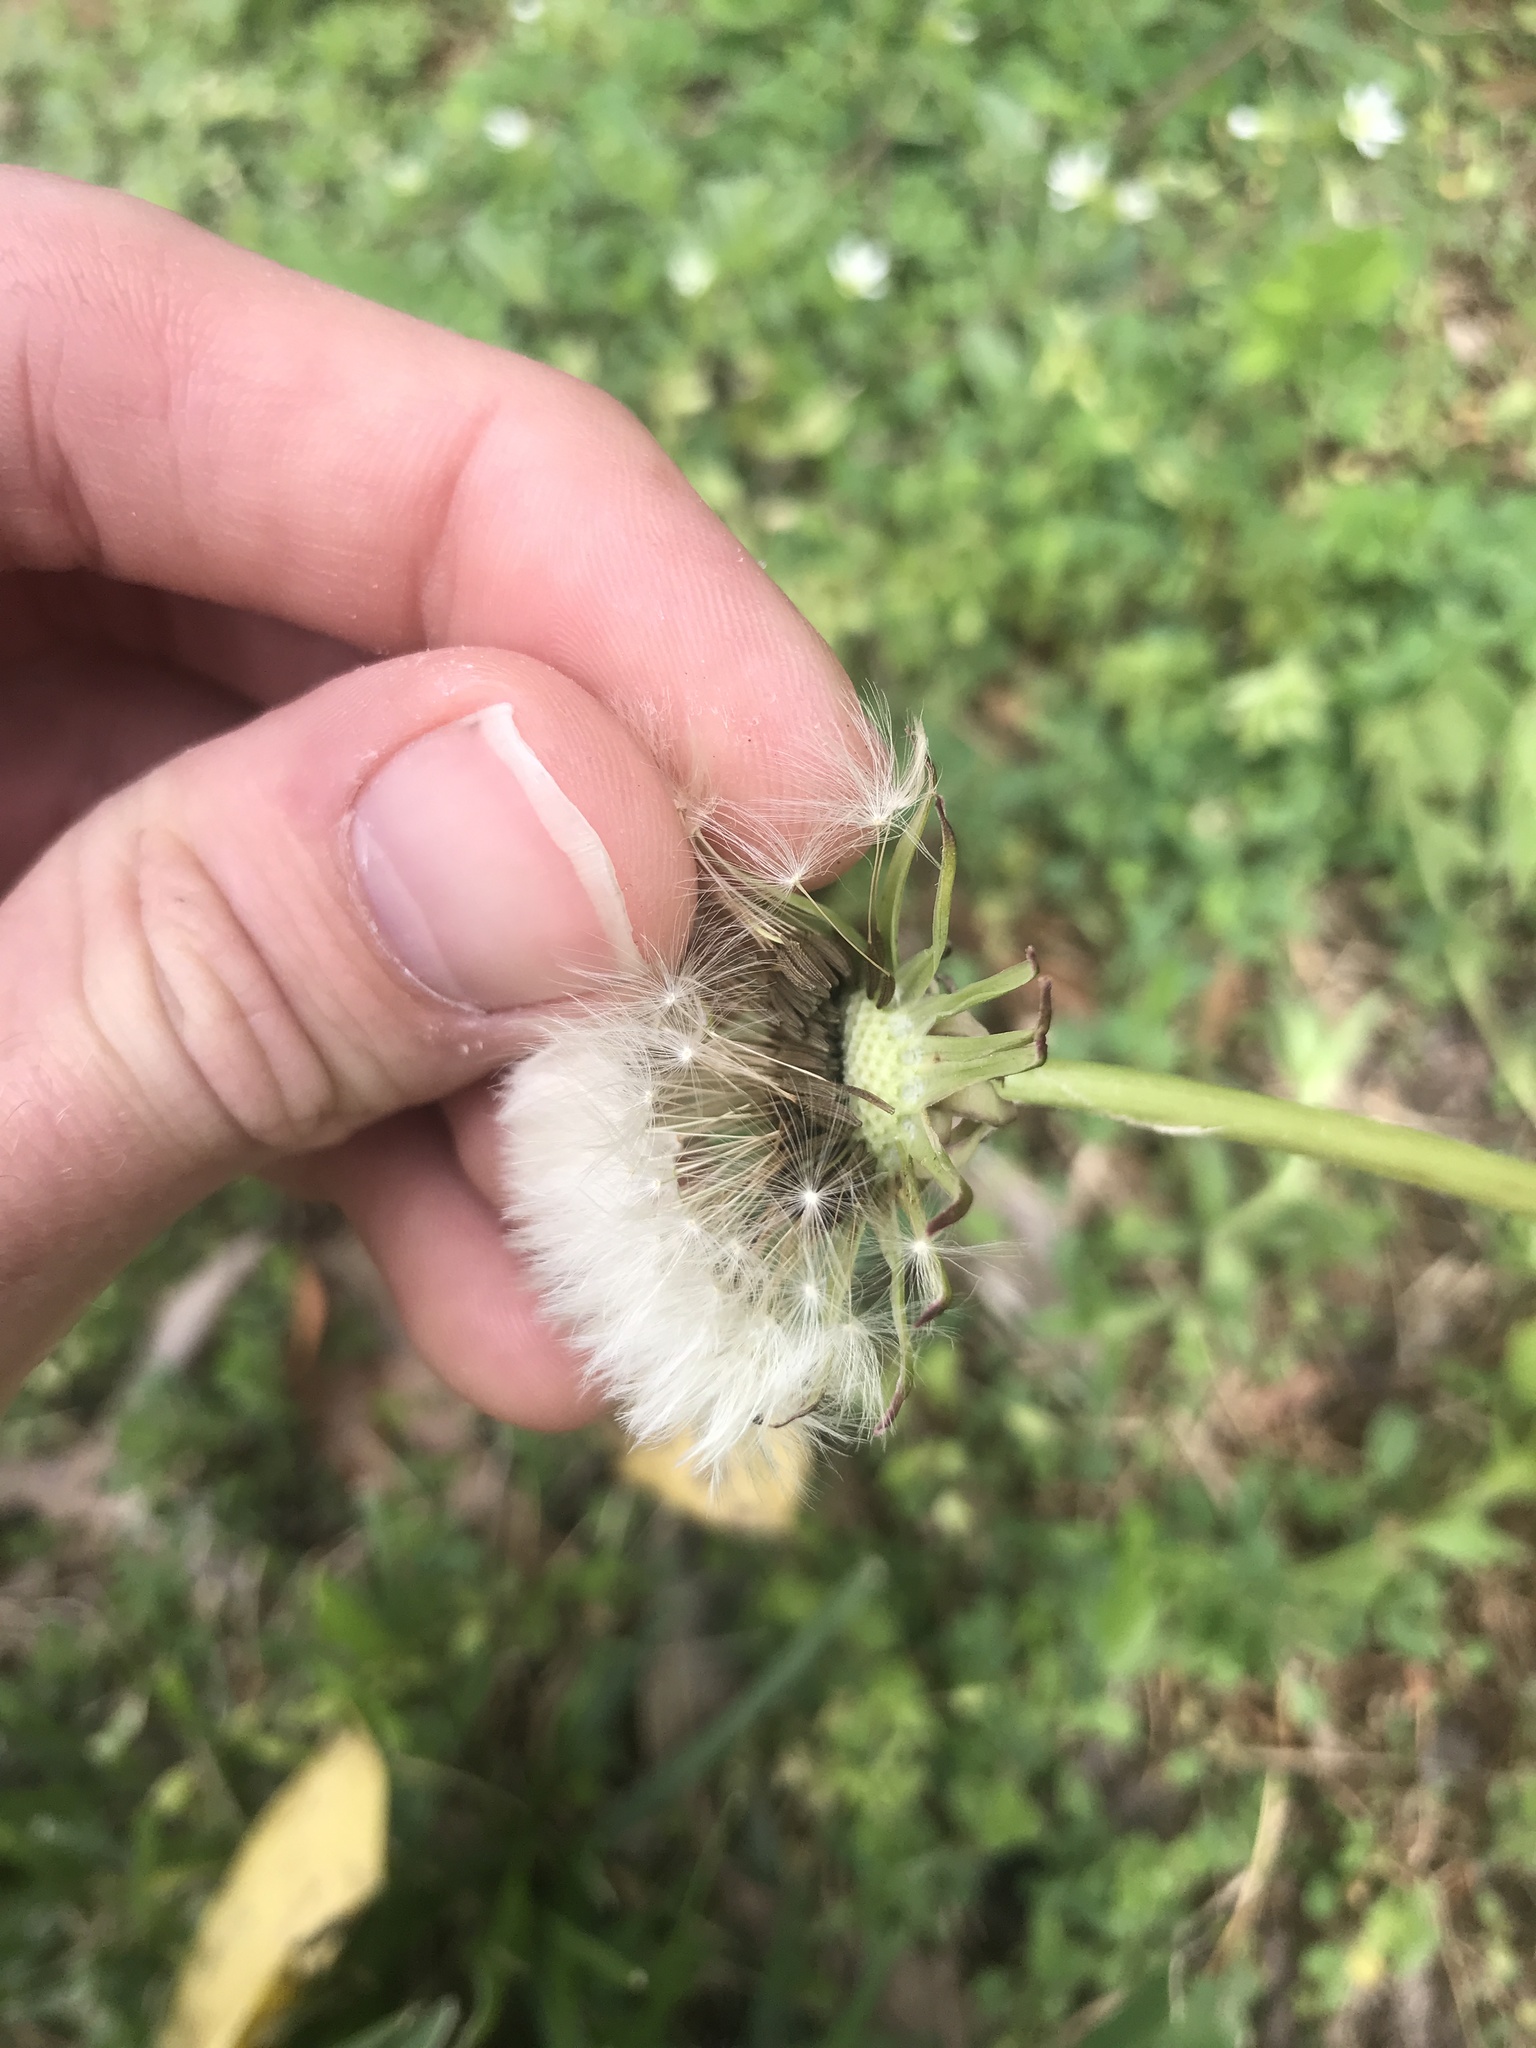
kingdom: Plantae
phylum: Tracheophyta
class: Magnoliopsida
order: Asterales
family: Asteraceae
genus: Taraxacum
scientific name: Taraxacum officinale
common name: Common dandelion
